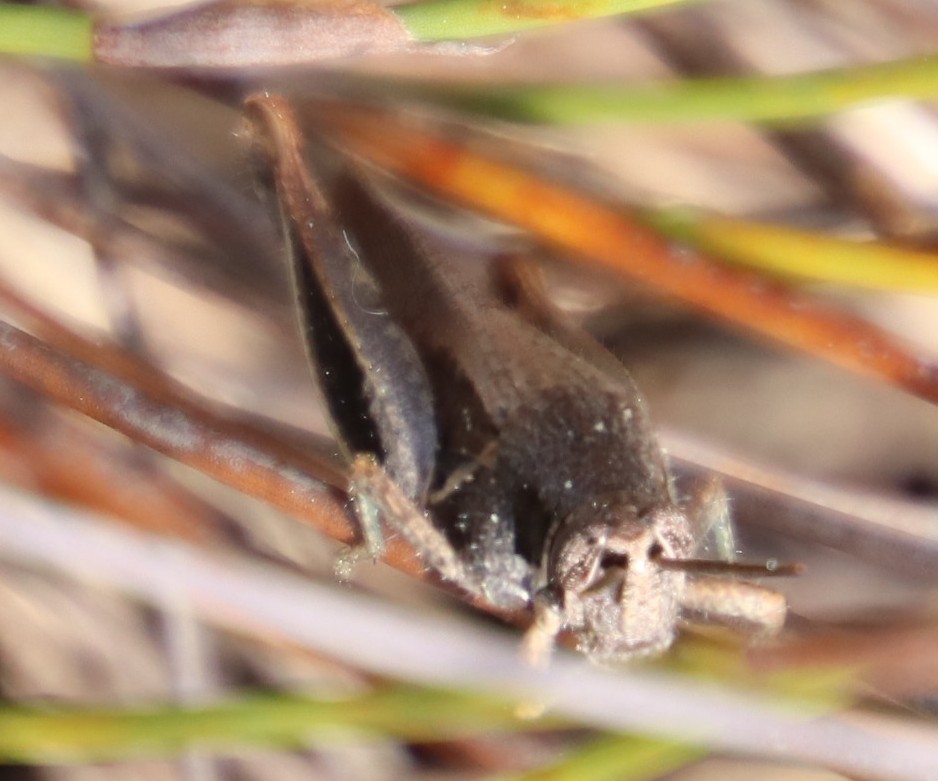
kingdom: Animalia
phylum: Arthropoda
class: Insecta
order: Orthoptera
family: Acrididae
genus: Vitticatantops
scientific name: Vitticatantops humeralis
